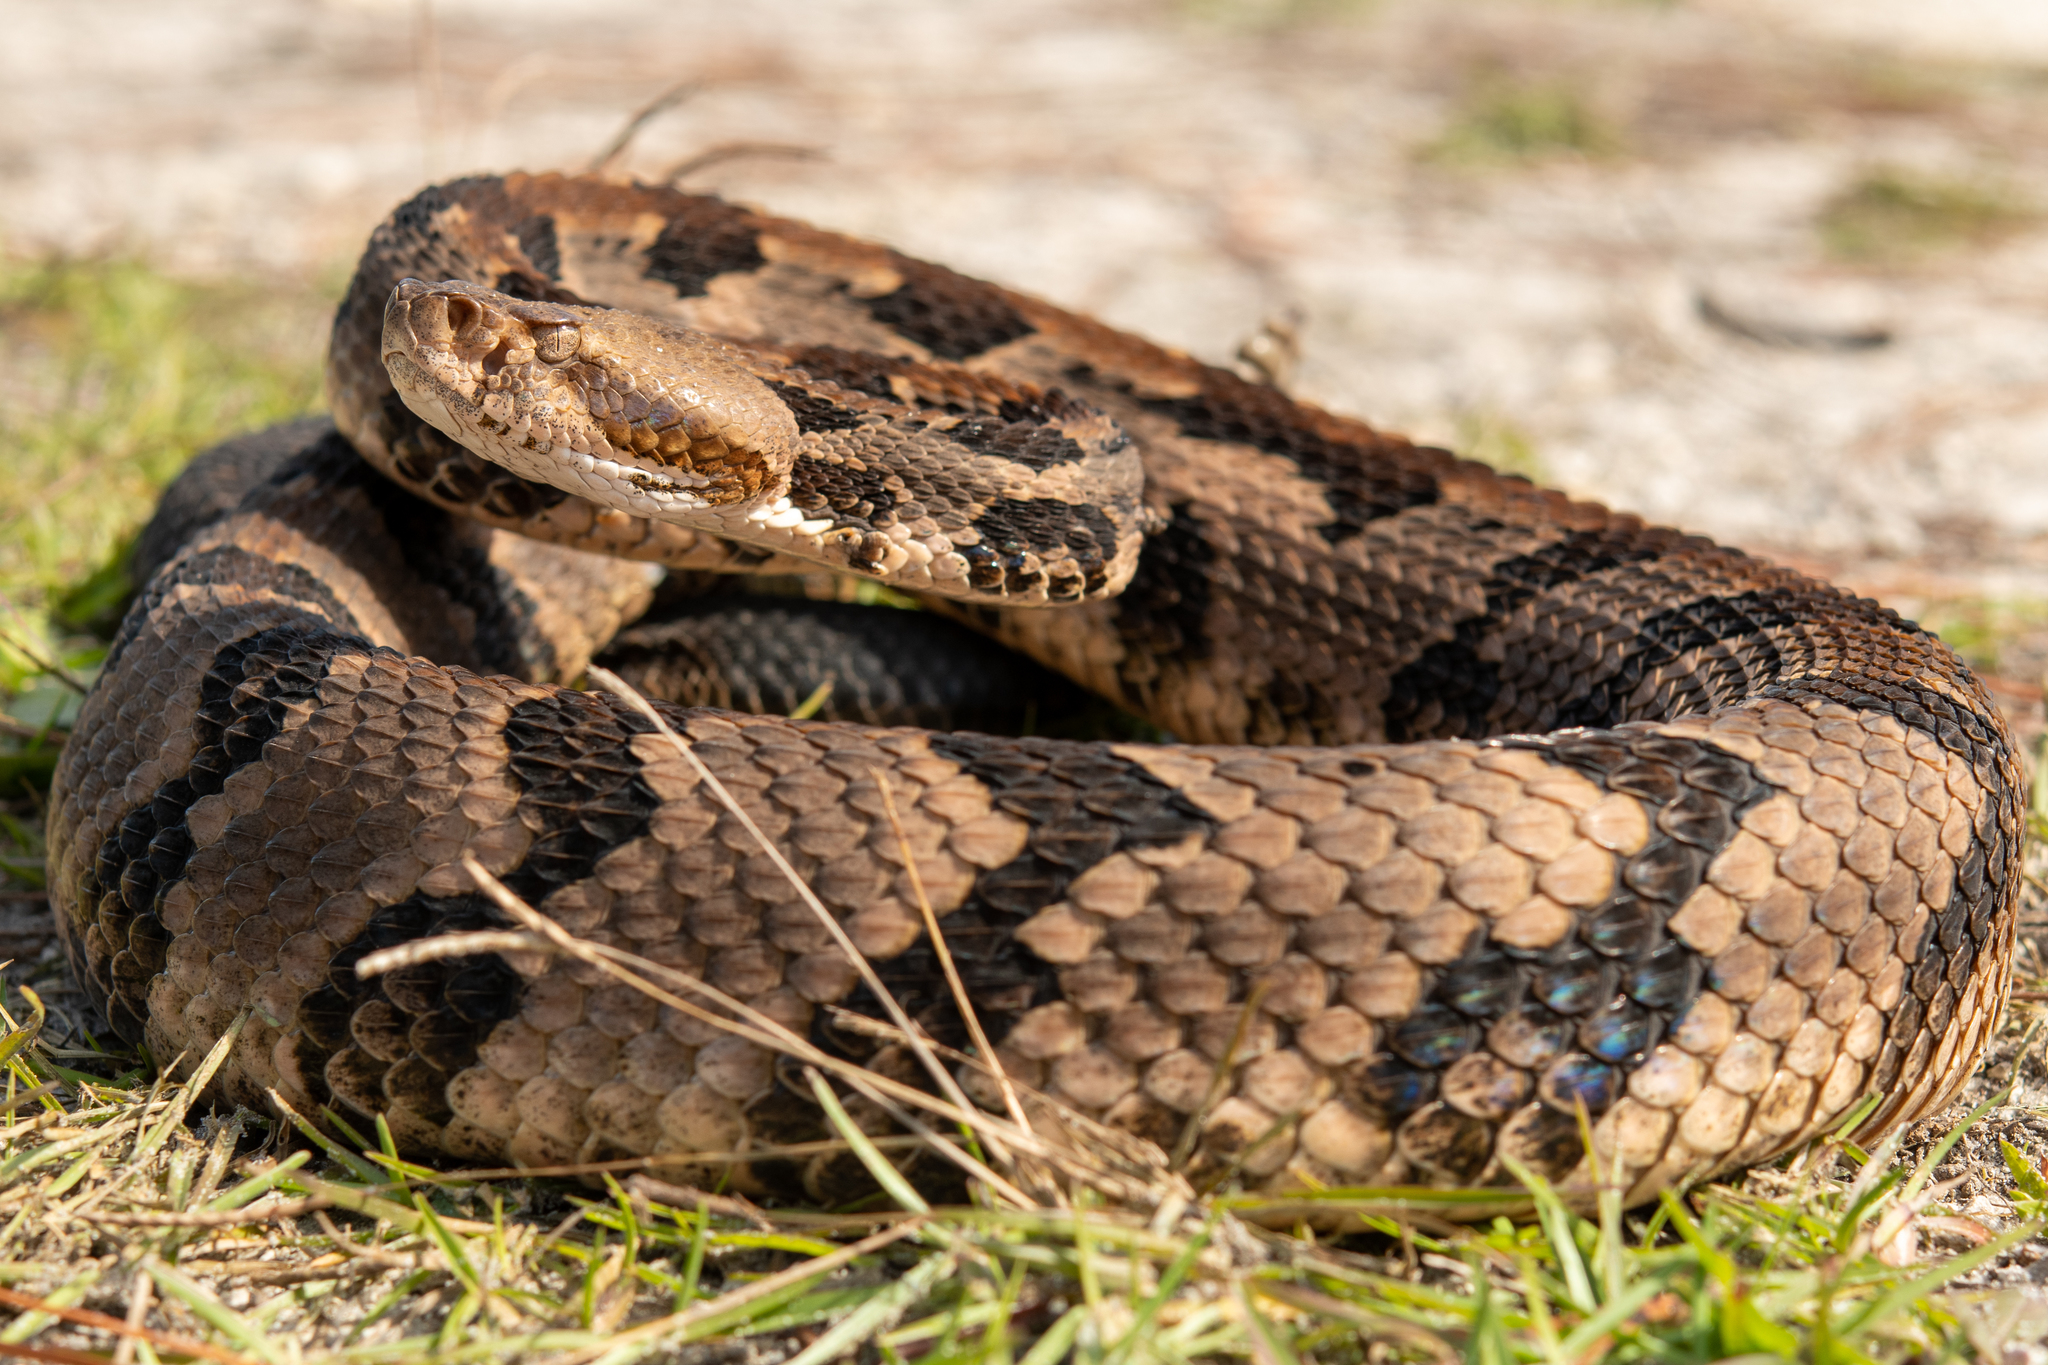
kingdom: Animalia
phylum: Chordata
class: Squamata
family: Viperidae
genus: Crotalus
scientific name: Crotalus horridus
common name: Timber rattlesnake
